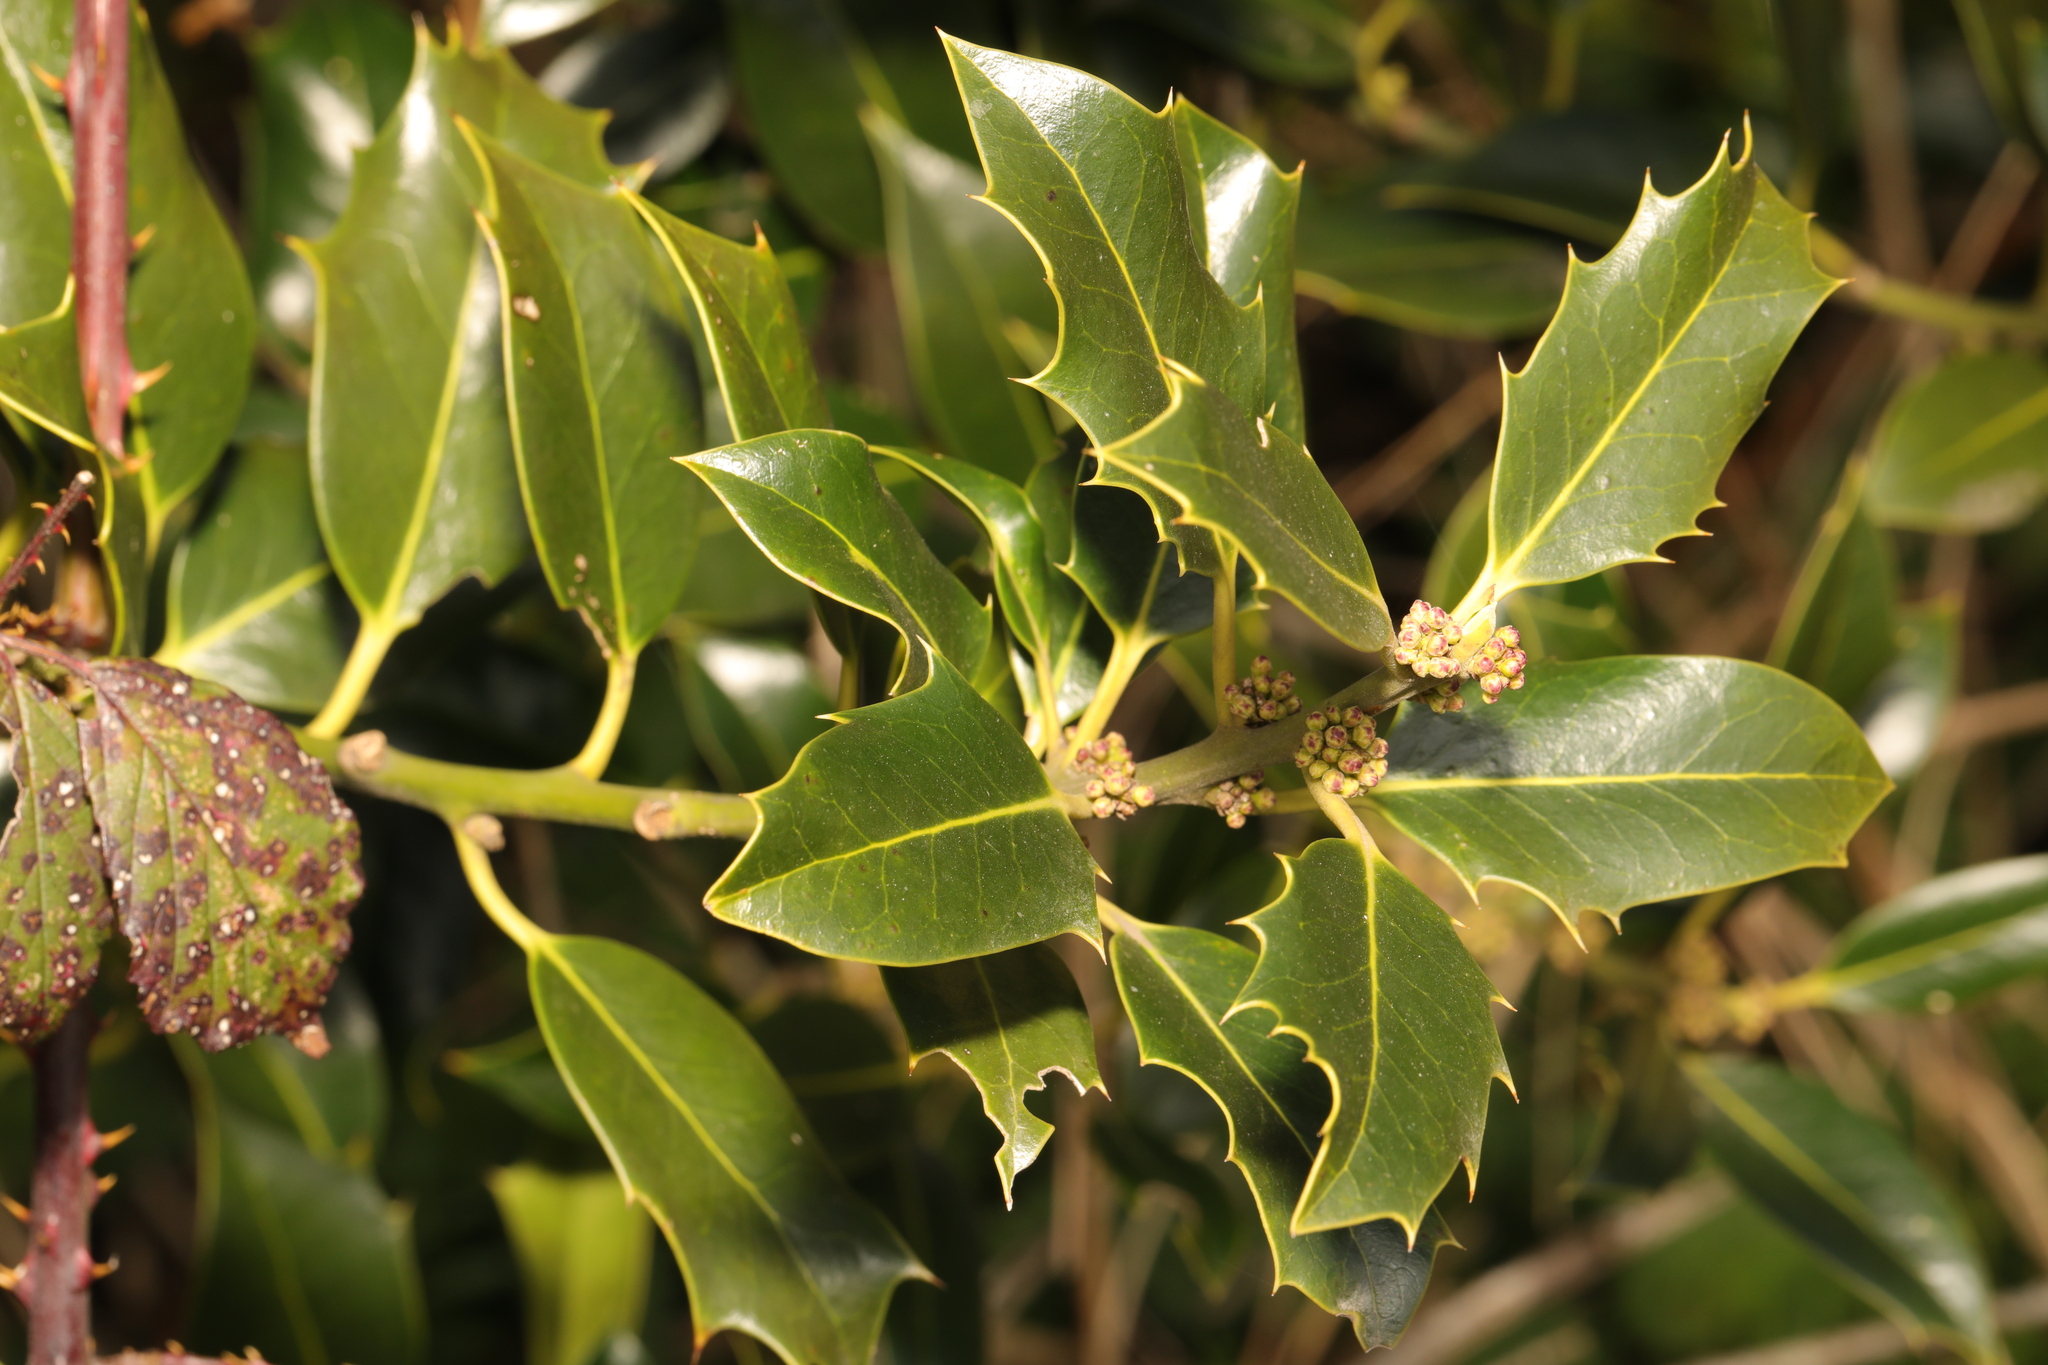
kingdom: Plantae
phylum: Tracheophyta
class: Magnoliopsida
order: Aquifoliales
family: Aquifoliaceae
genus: Ilex
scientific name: Ilex aquifolium
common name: English holly
